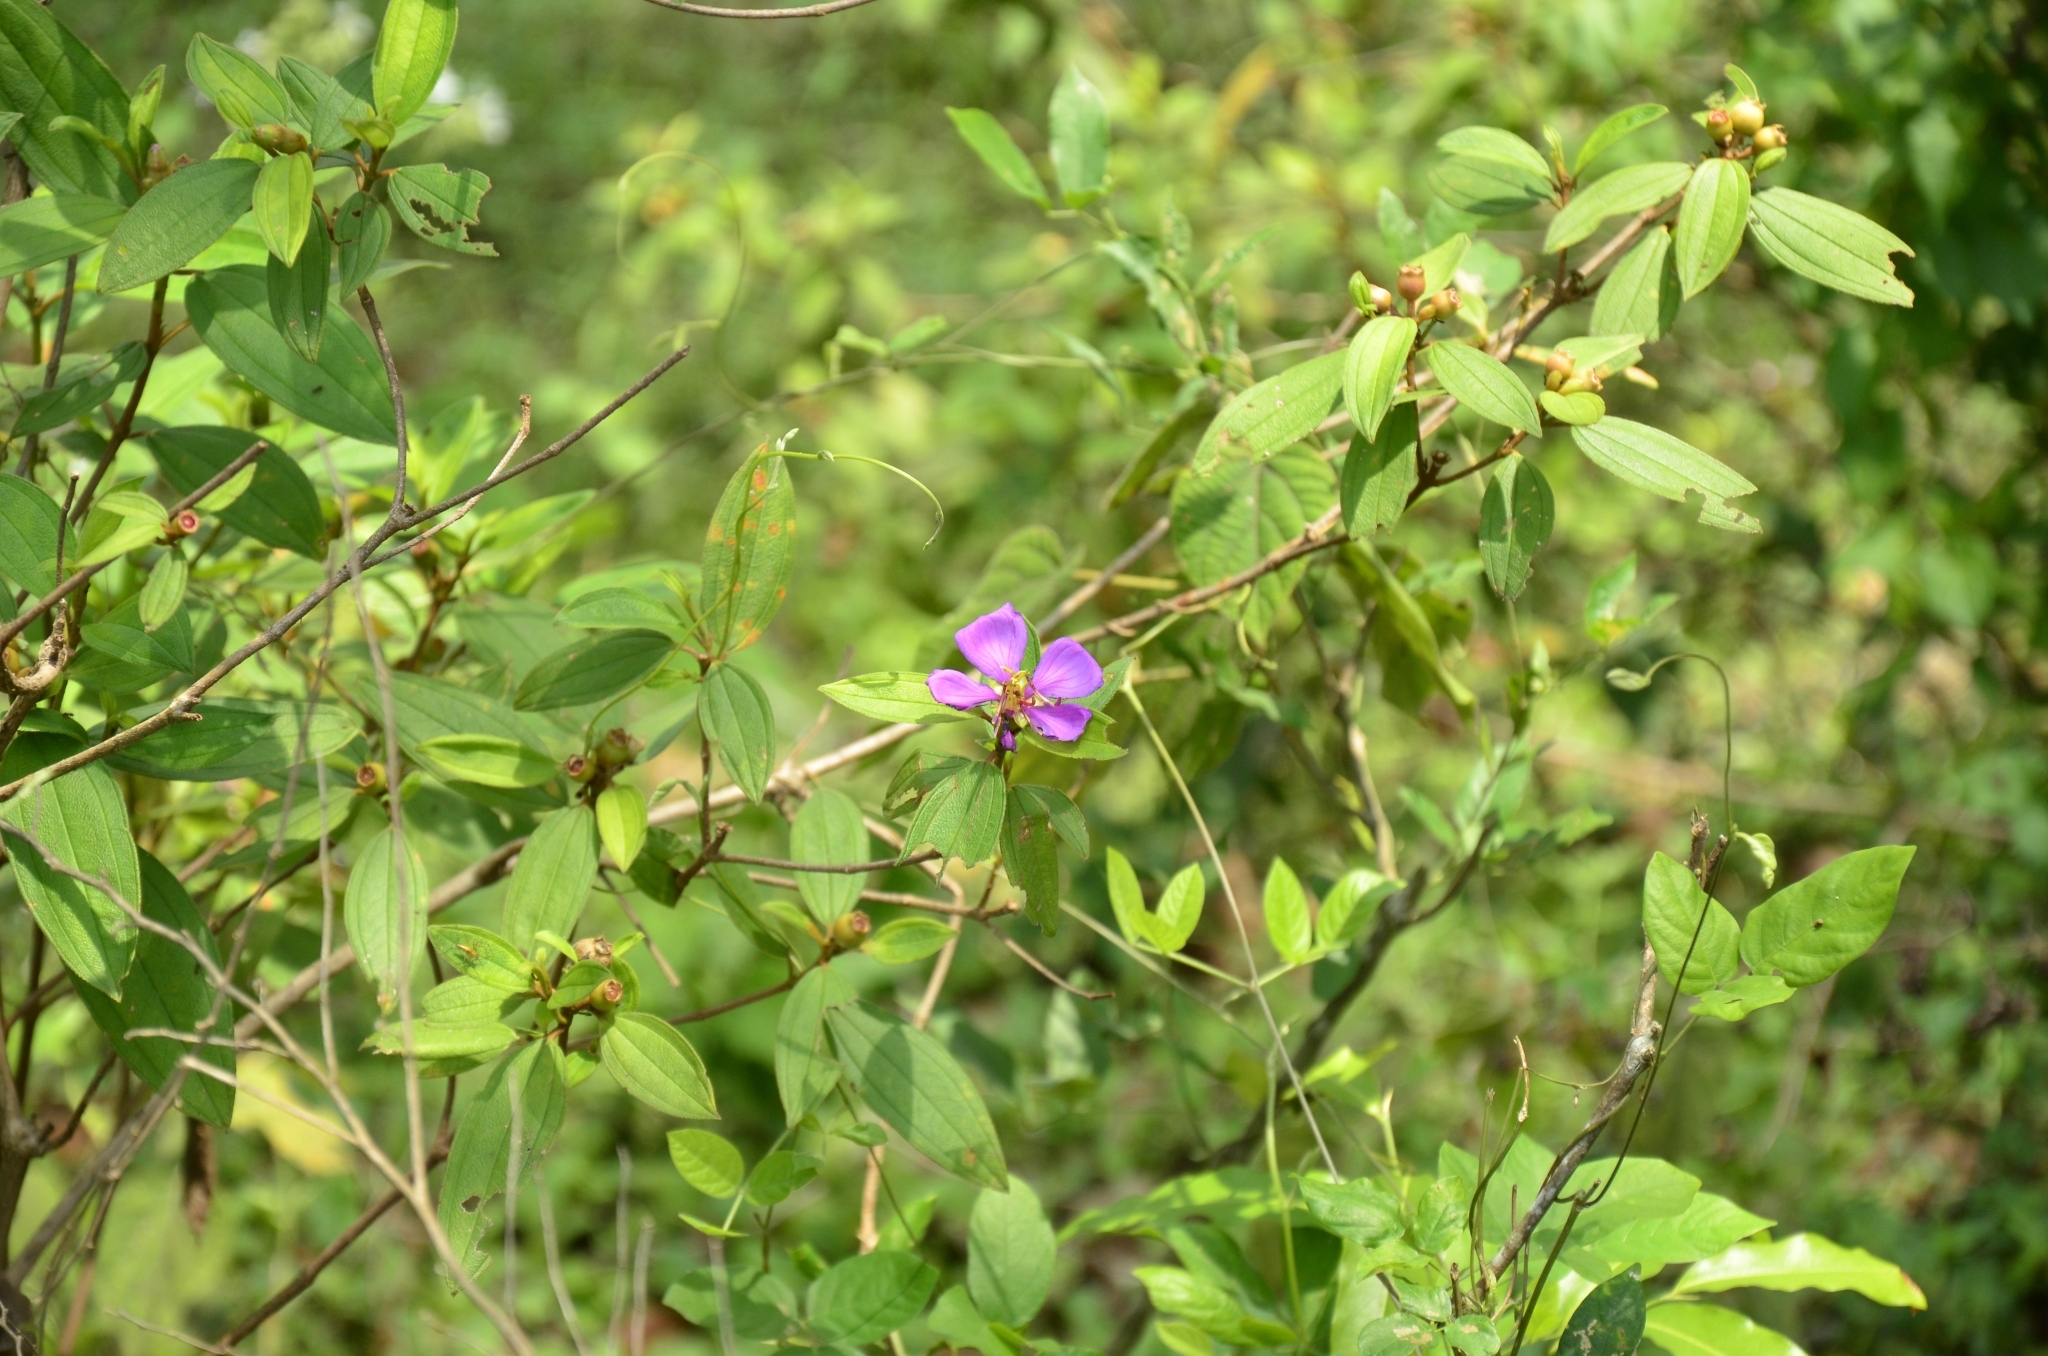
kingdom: Plantae
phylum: Tracheophyta
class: Magnoliopsida
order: Myrtales
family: Melastomataceae
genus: Melastoma
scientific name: Melastoma malabathricum
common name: Indian-rhododendron
